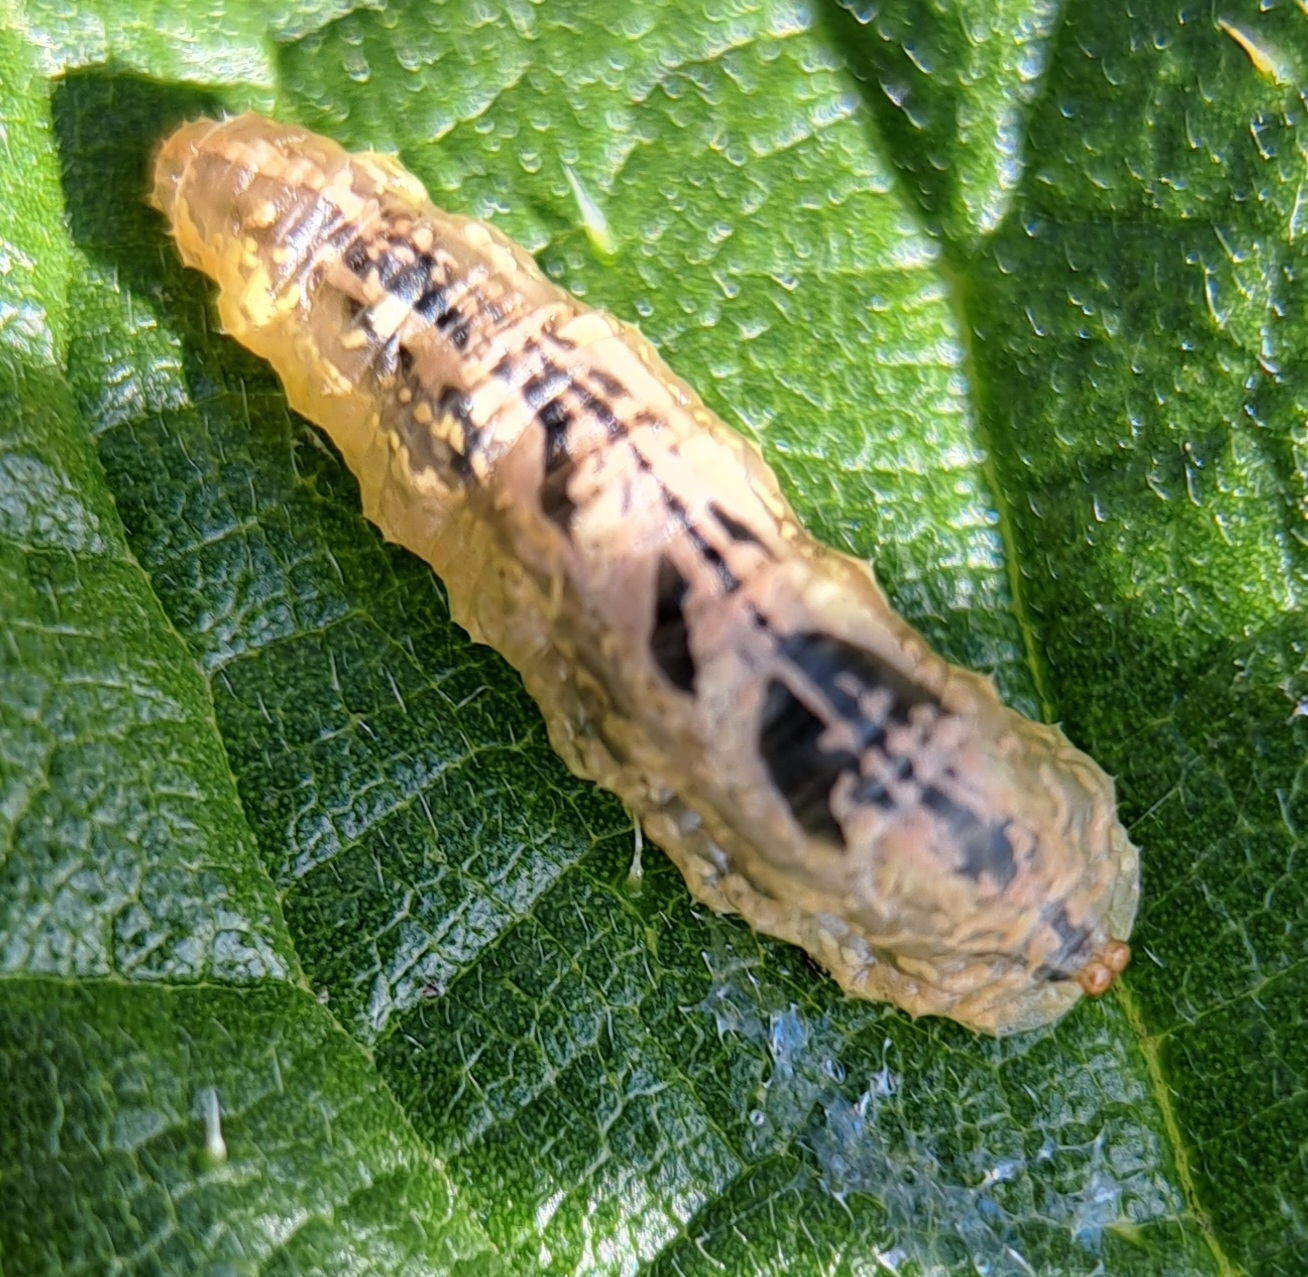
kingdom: Animalia
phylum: Arthropoda
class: Insecta
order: Diptera
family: Syrphidae
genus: Syrphus
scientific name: Syrphus
